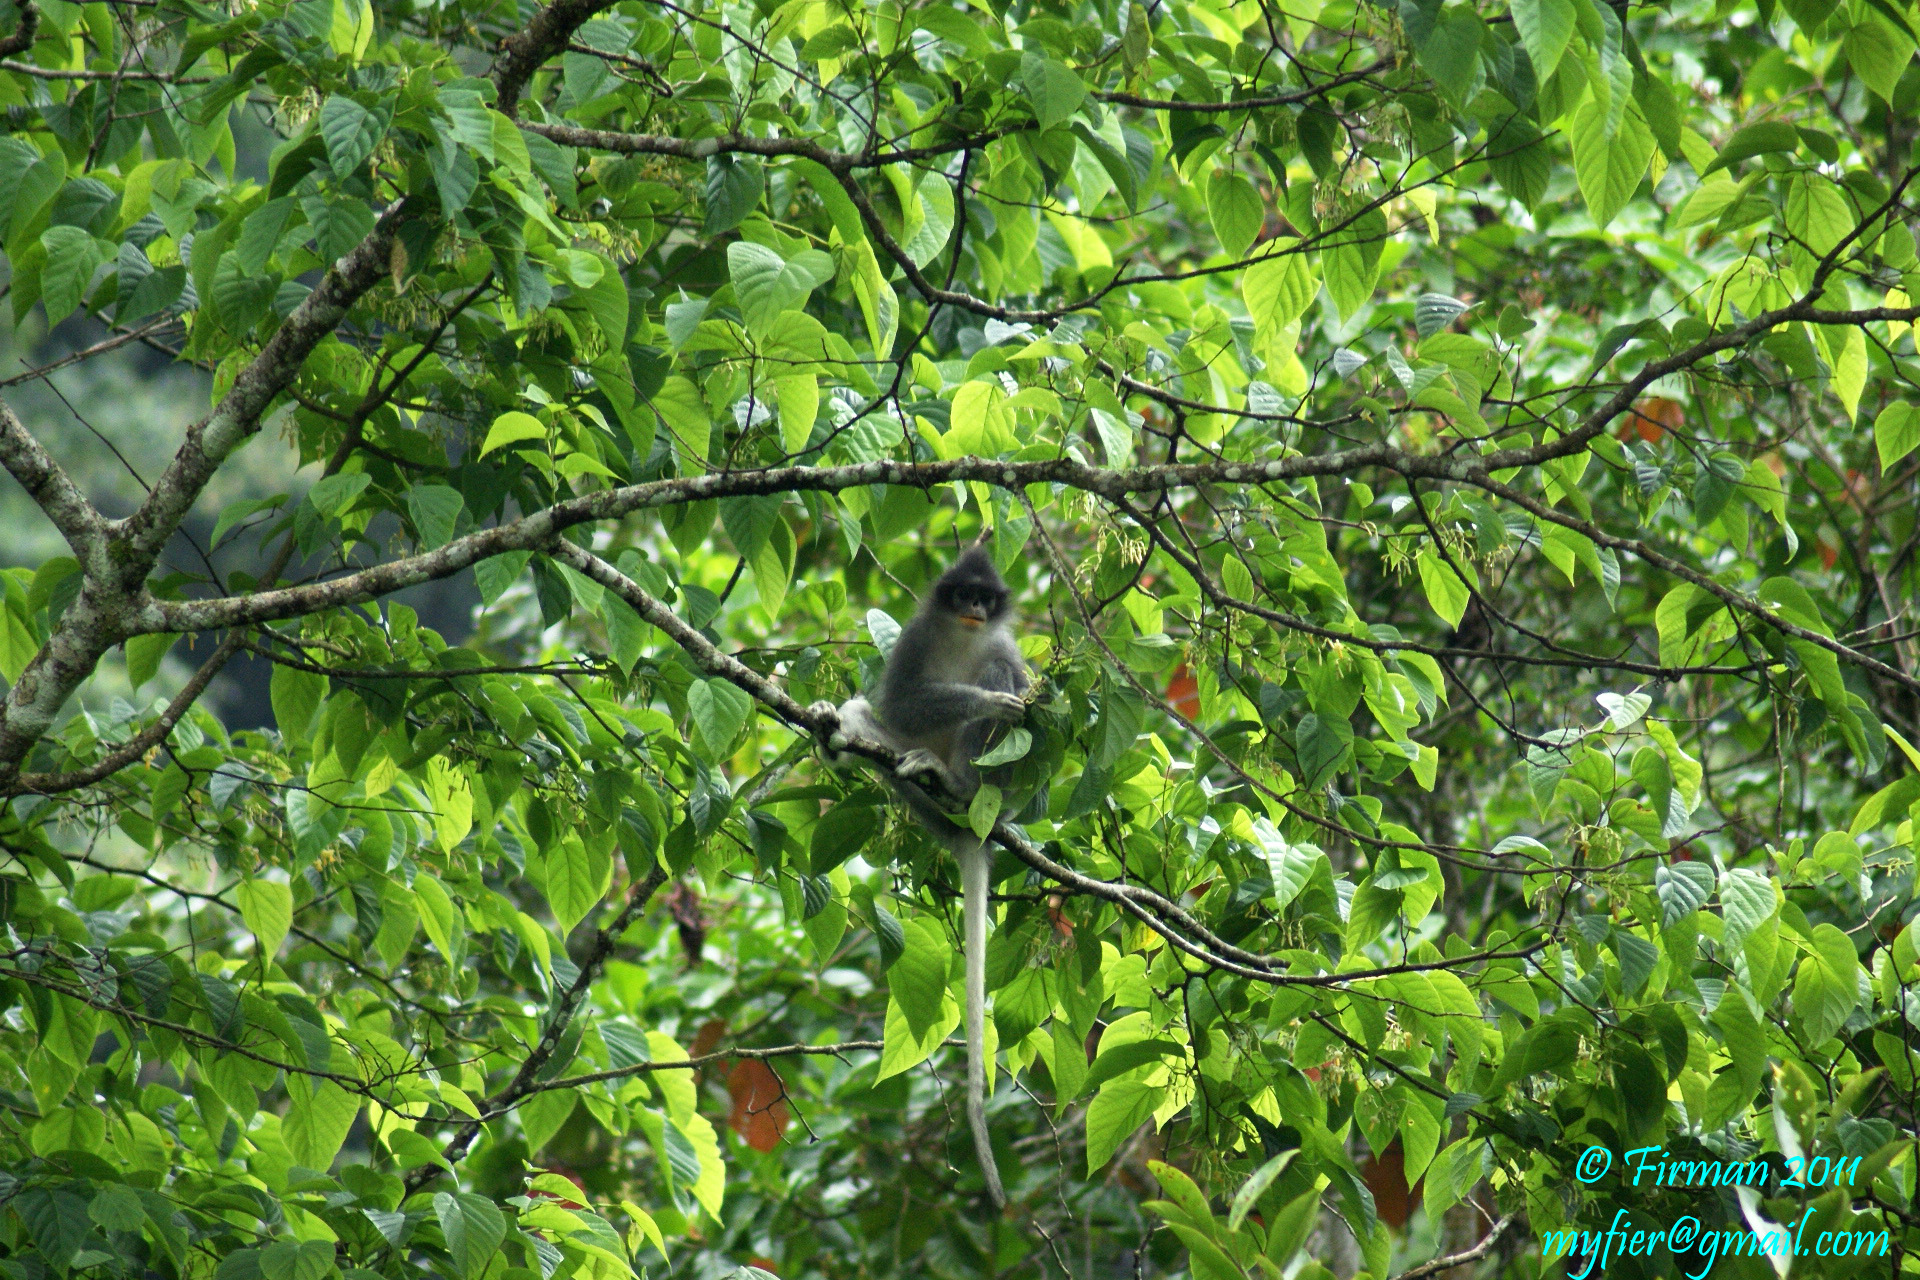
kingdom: Animalia
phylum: Chordata
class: Mammalia
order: Primates
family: Cercopithecidae
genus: Presbytis
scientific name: Presbytis comata
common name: Javan surili
